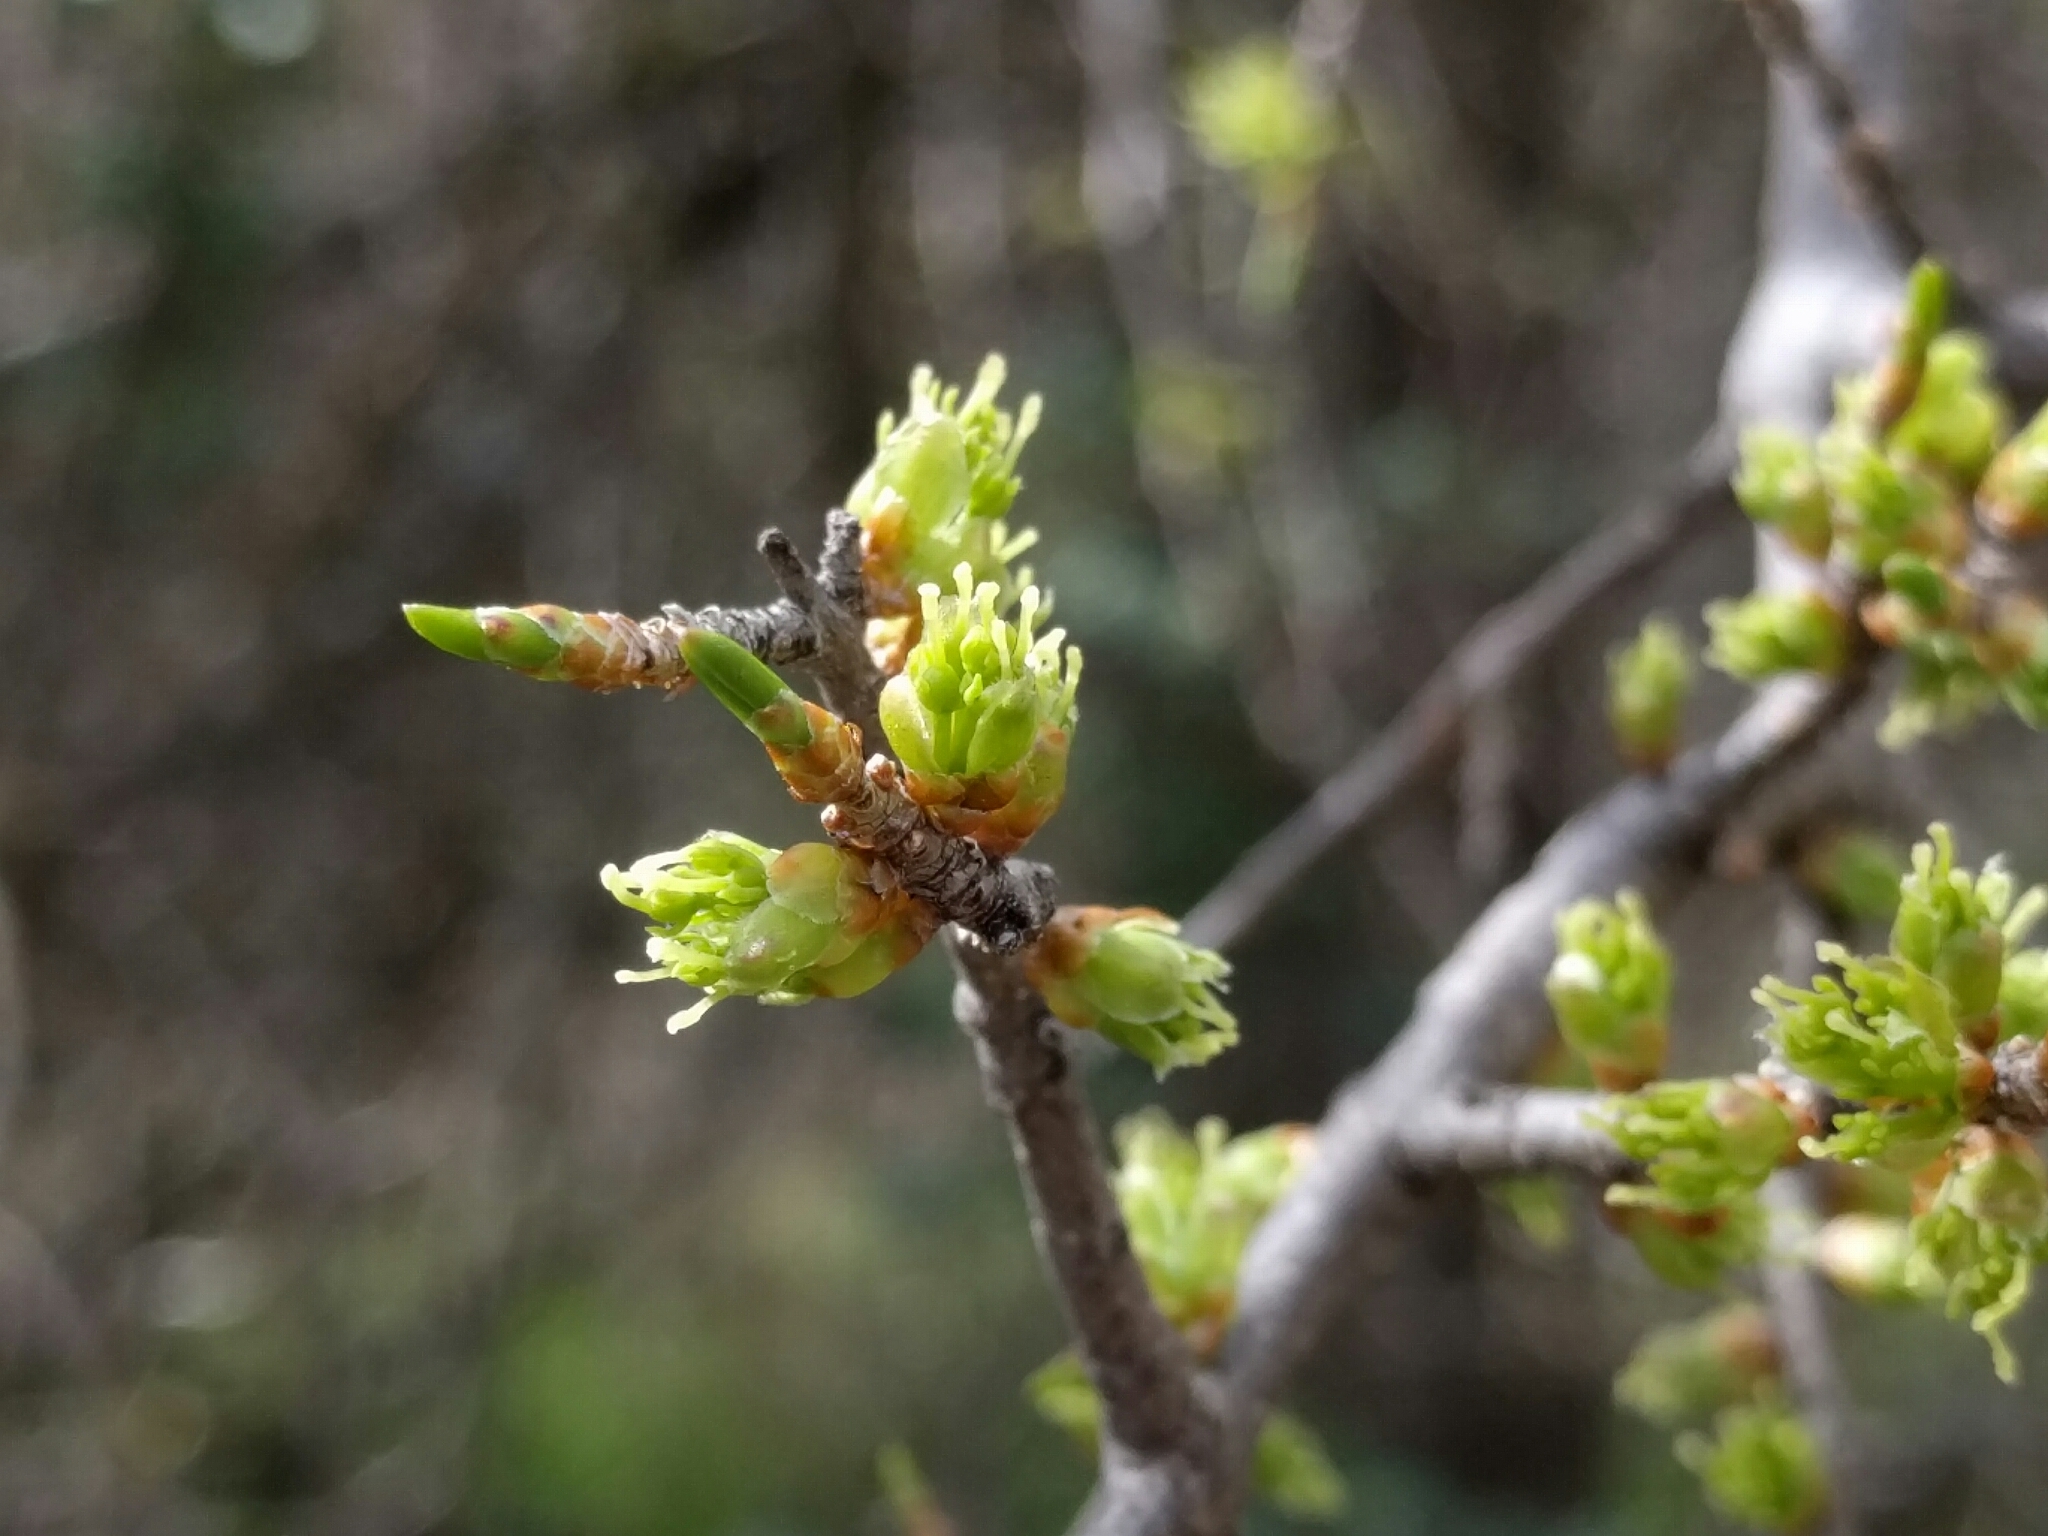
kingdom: Plantae
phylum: Tracheophyta
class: Magnoliopsida
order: Lamiales
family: Oleaceae
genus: Forestiera
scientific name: Forestiera pubescens
